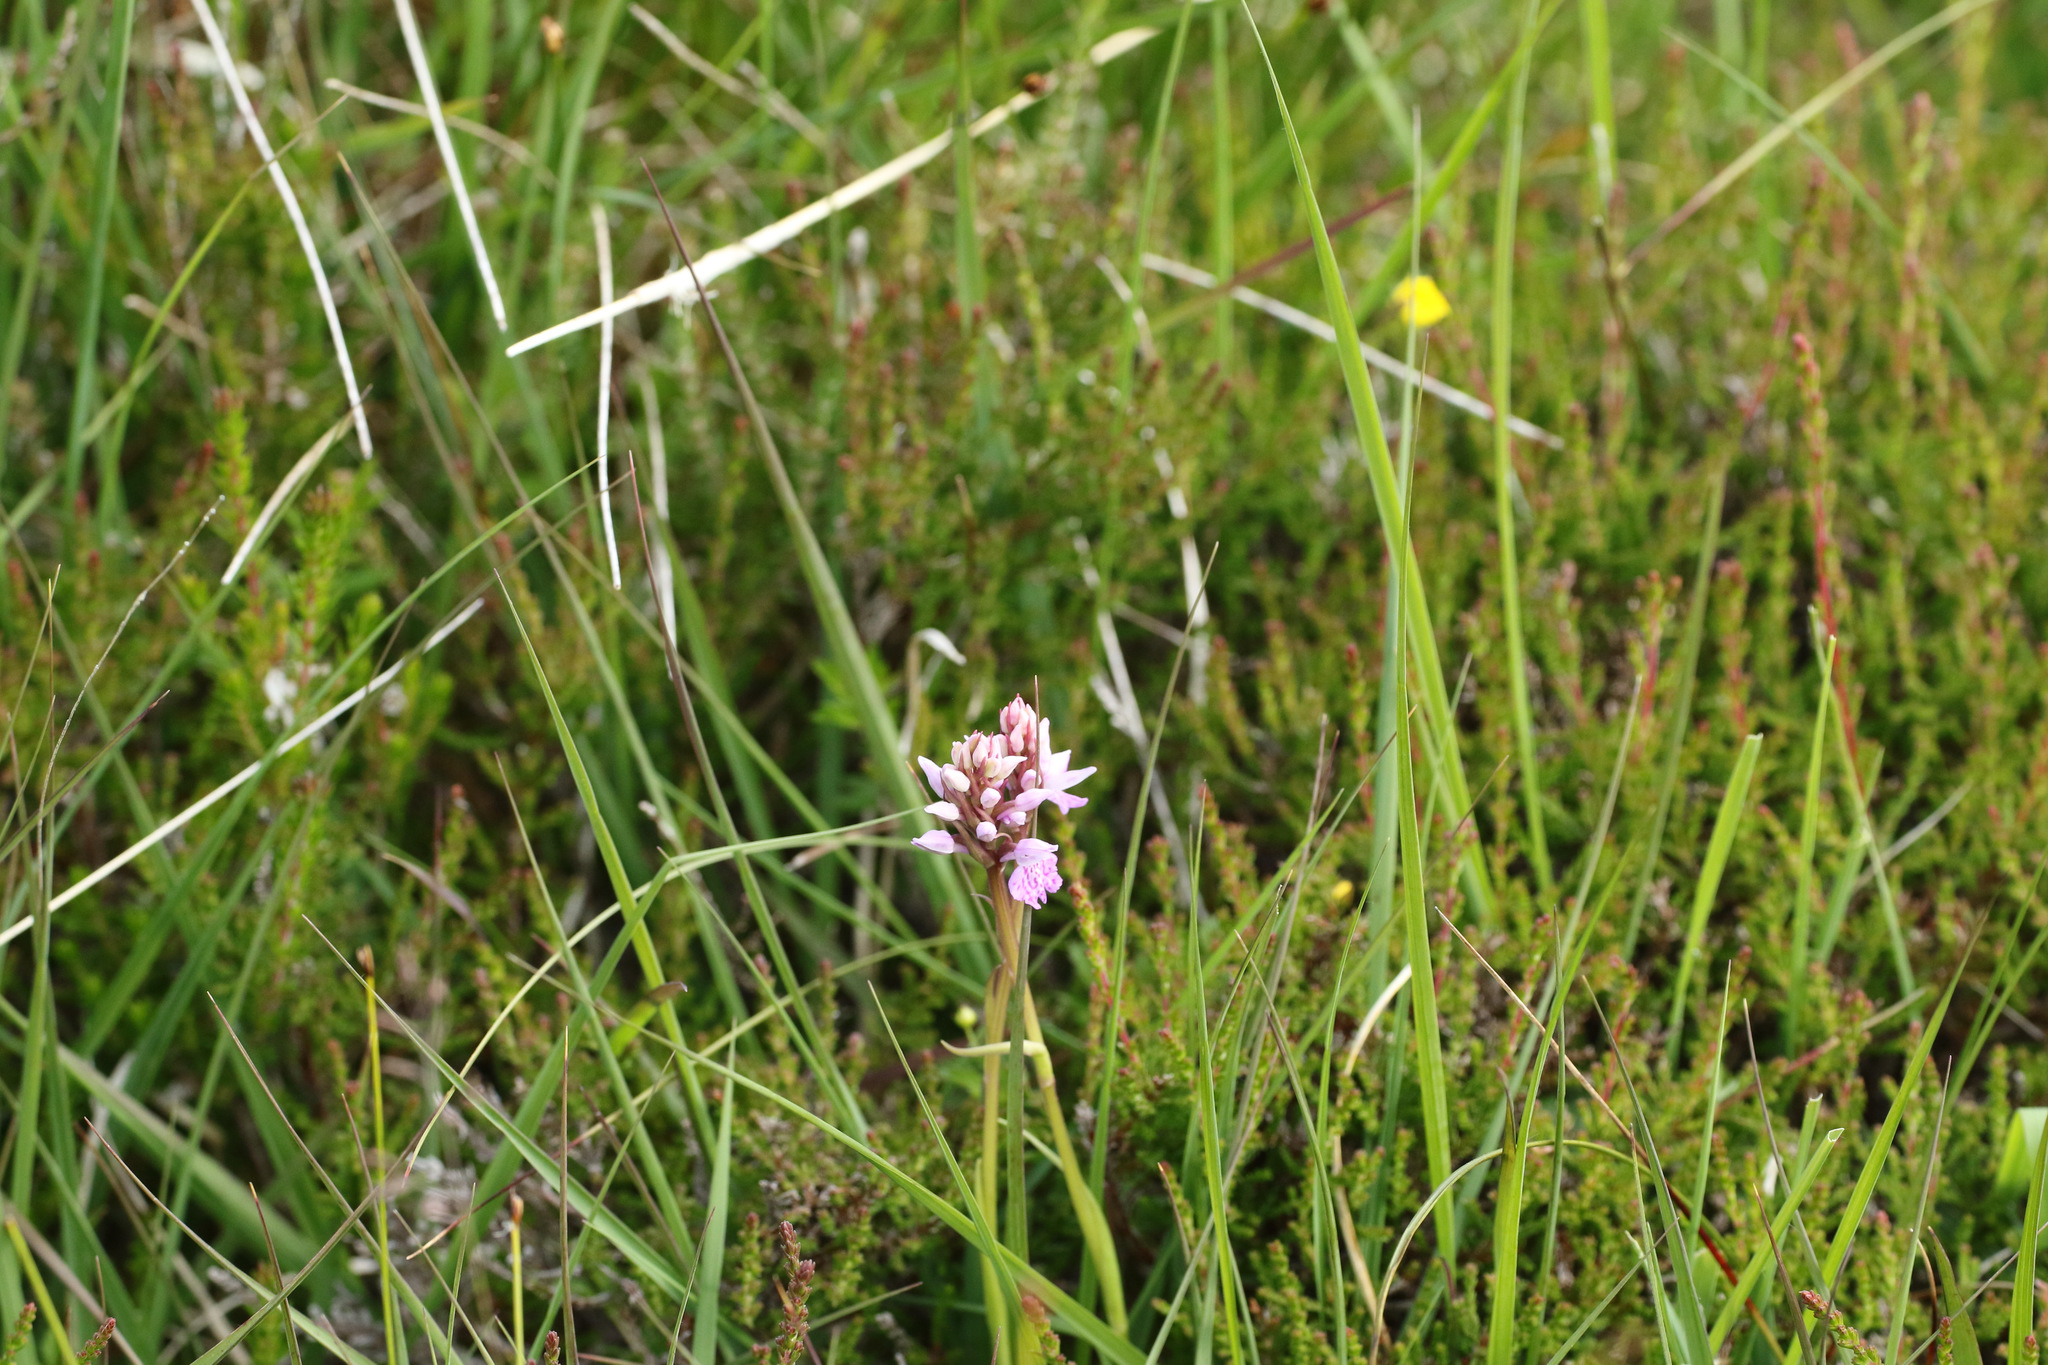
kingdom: Plantae
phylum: Tracheophyta
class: Liliopsida
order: Asparagales
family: Orchidaceae
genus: Dactylorhiza
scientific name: Dactylorhiza maculata
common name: Heath spotted-orchid
